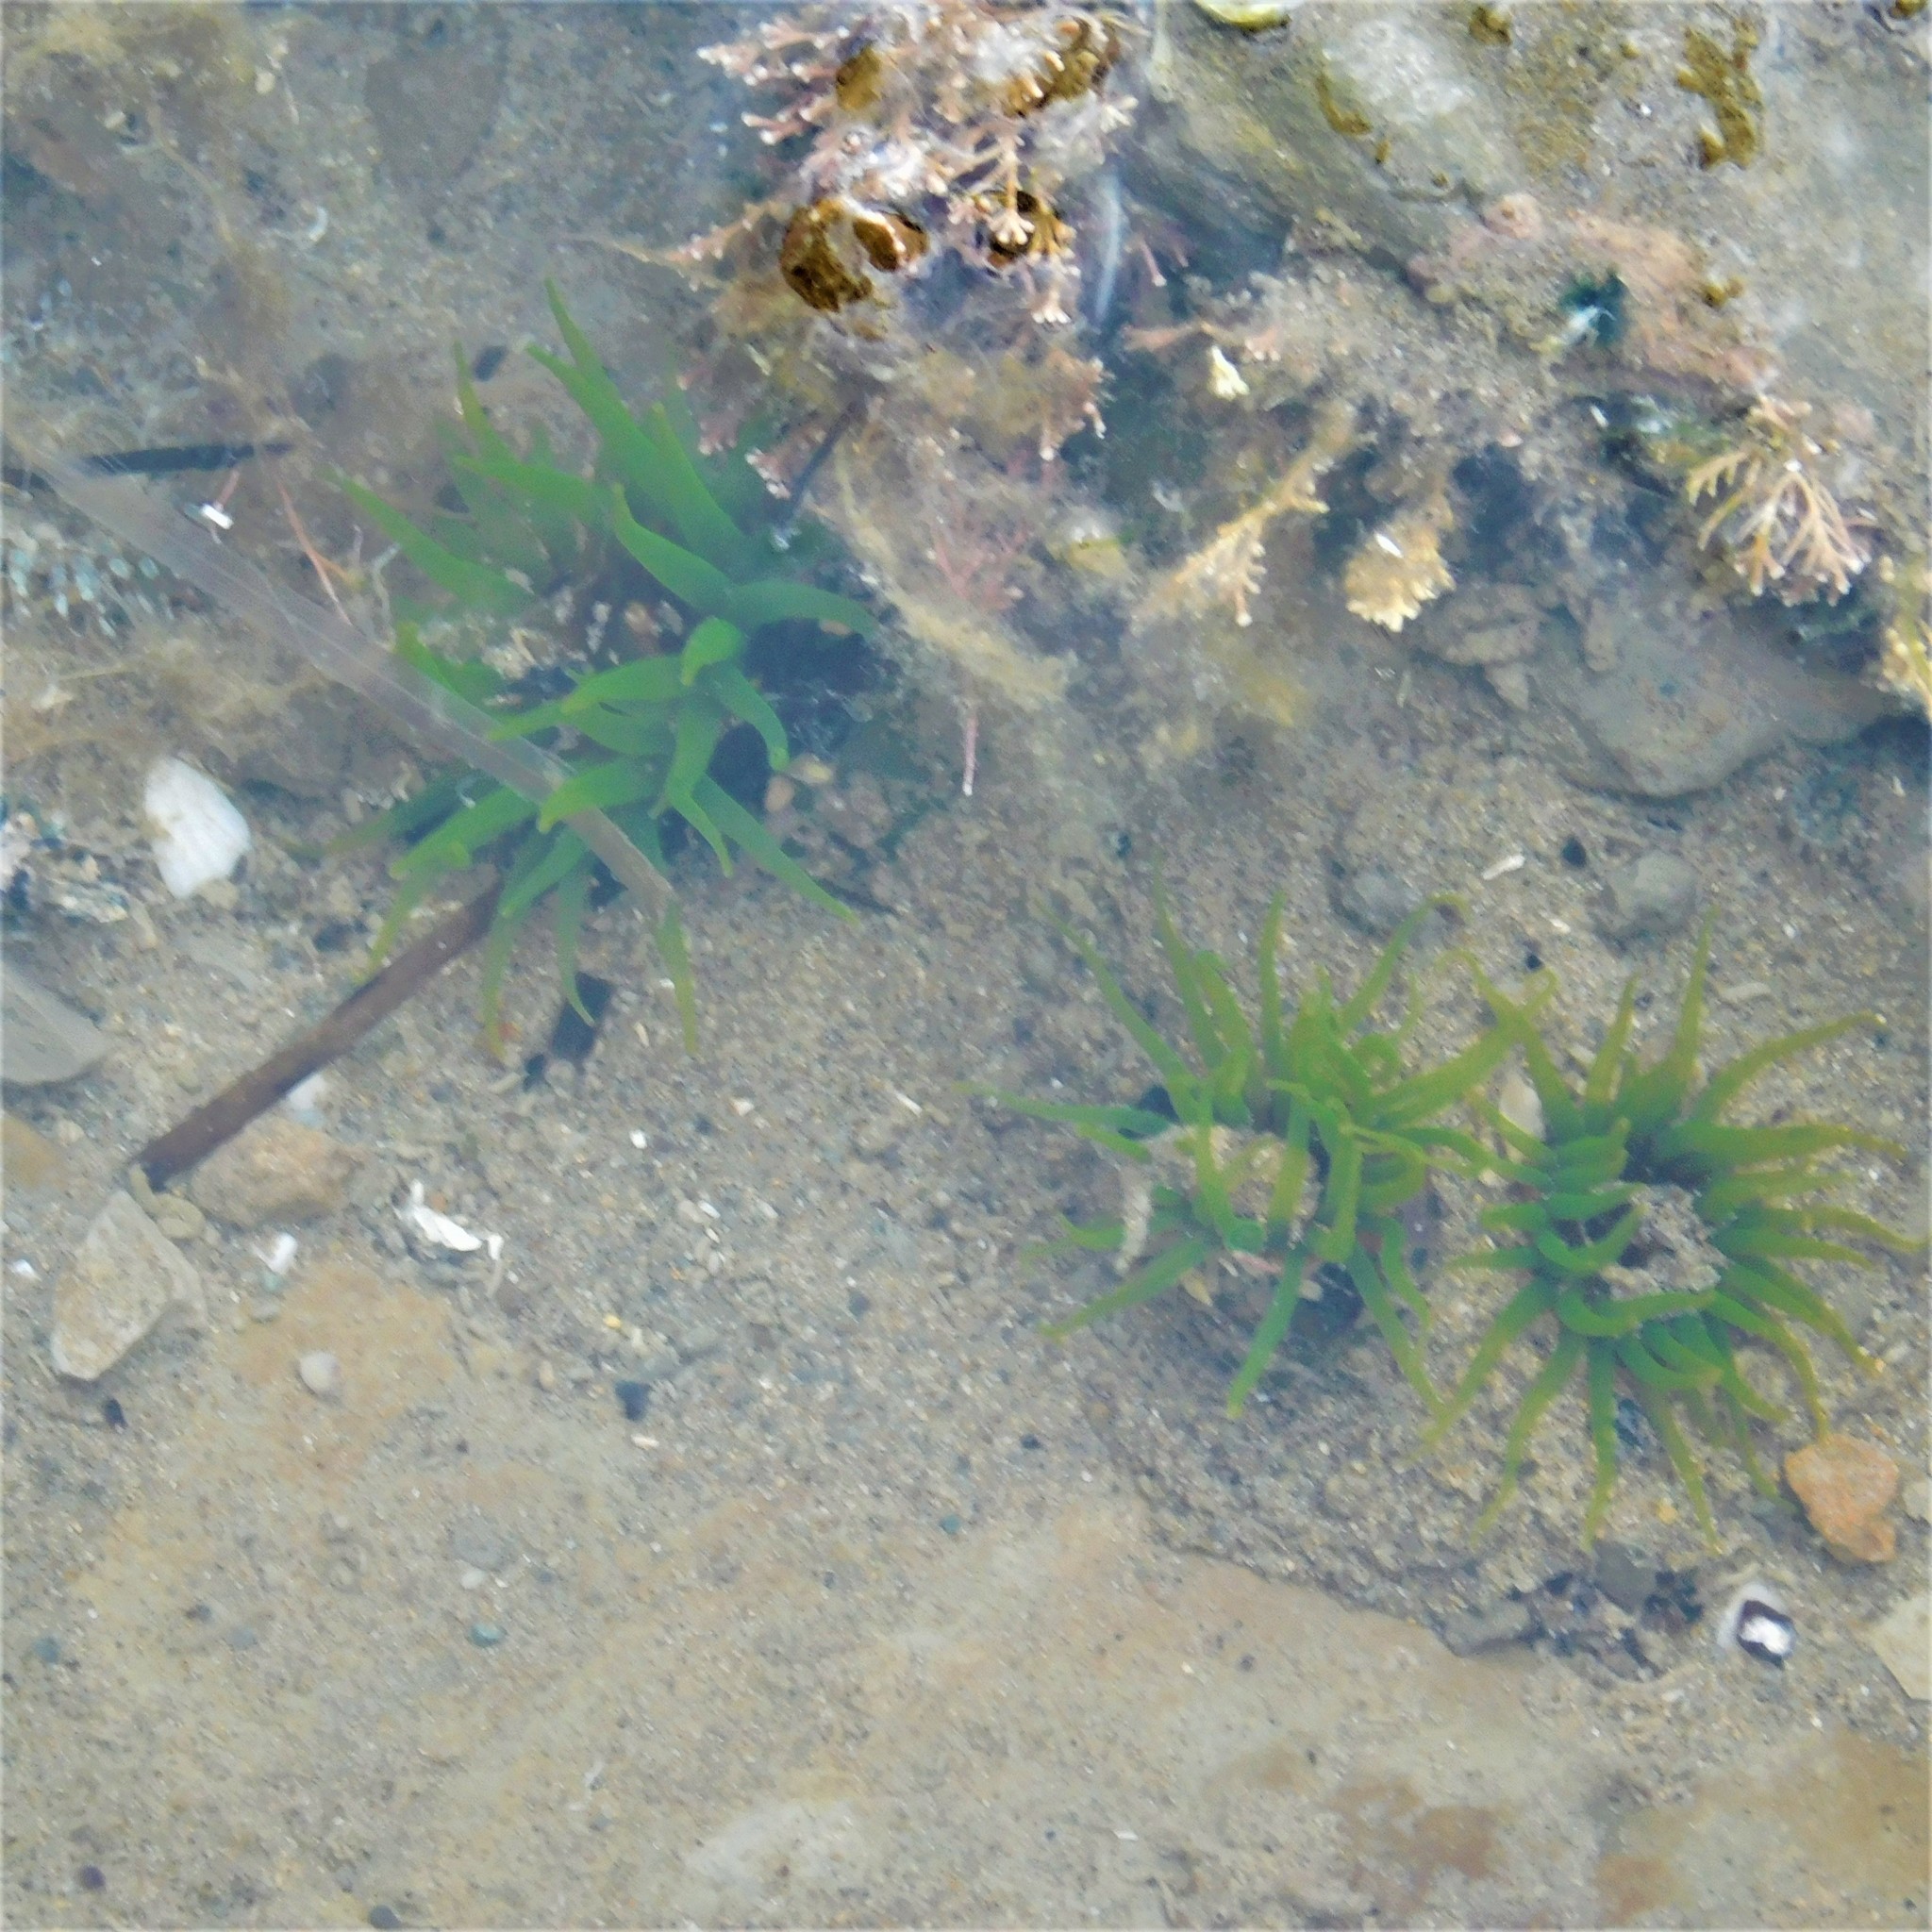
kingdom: Animalia
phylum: Cnidaria
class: Anthozoa
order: Actiniaria
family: Actiniidae
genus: Aulactinia
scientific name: Aulactinia veratra
